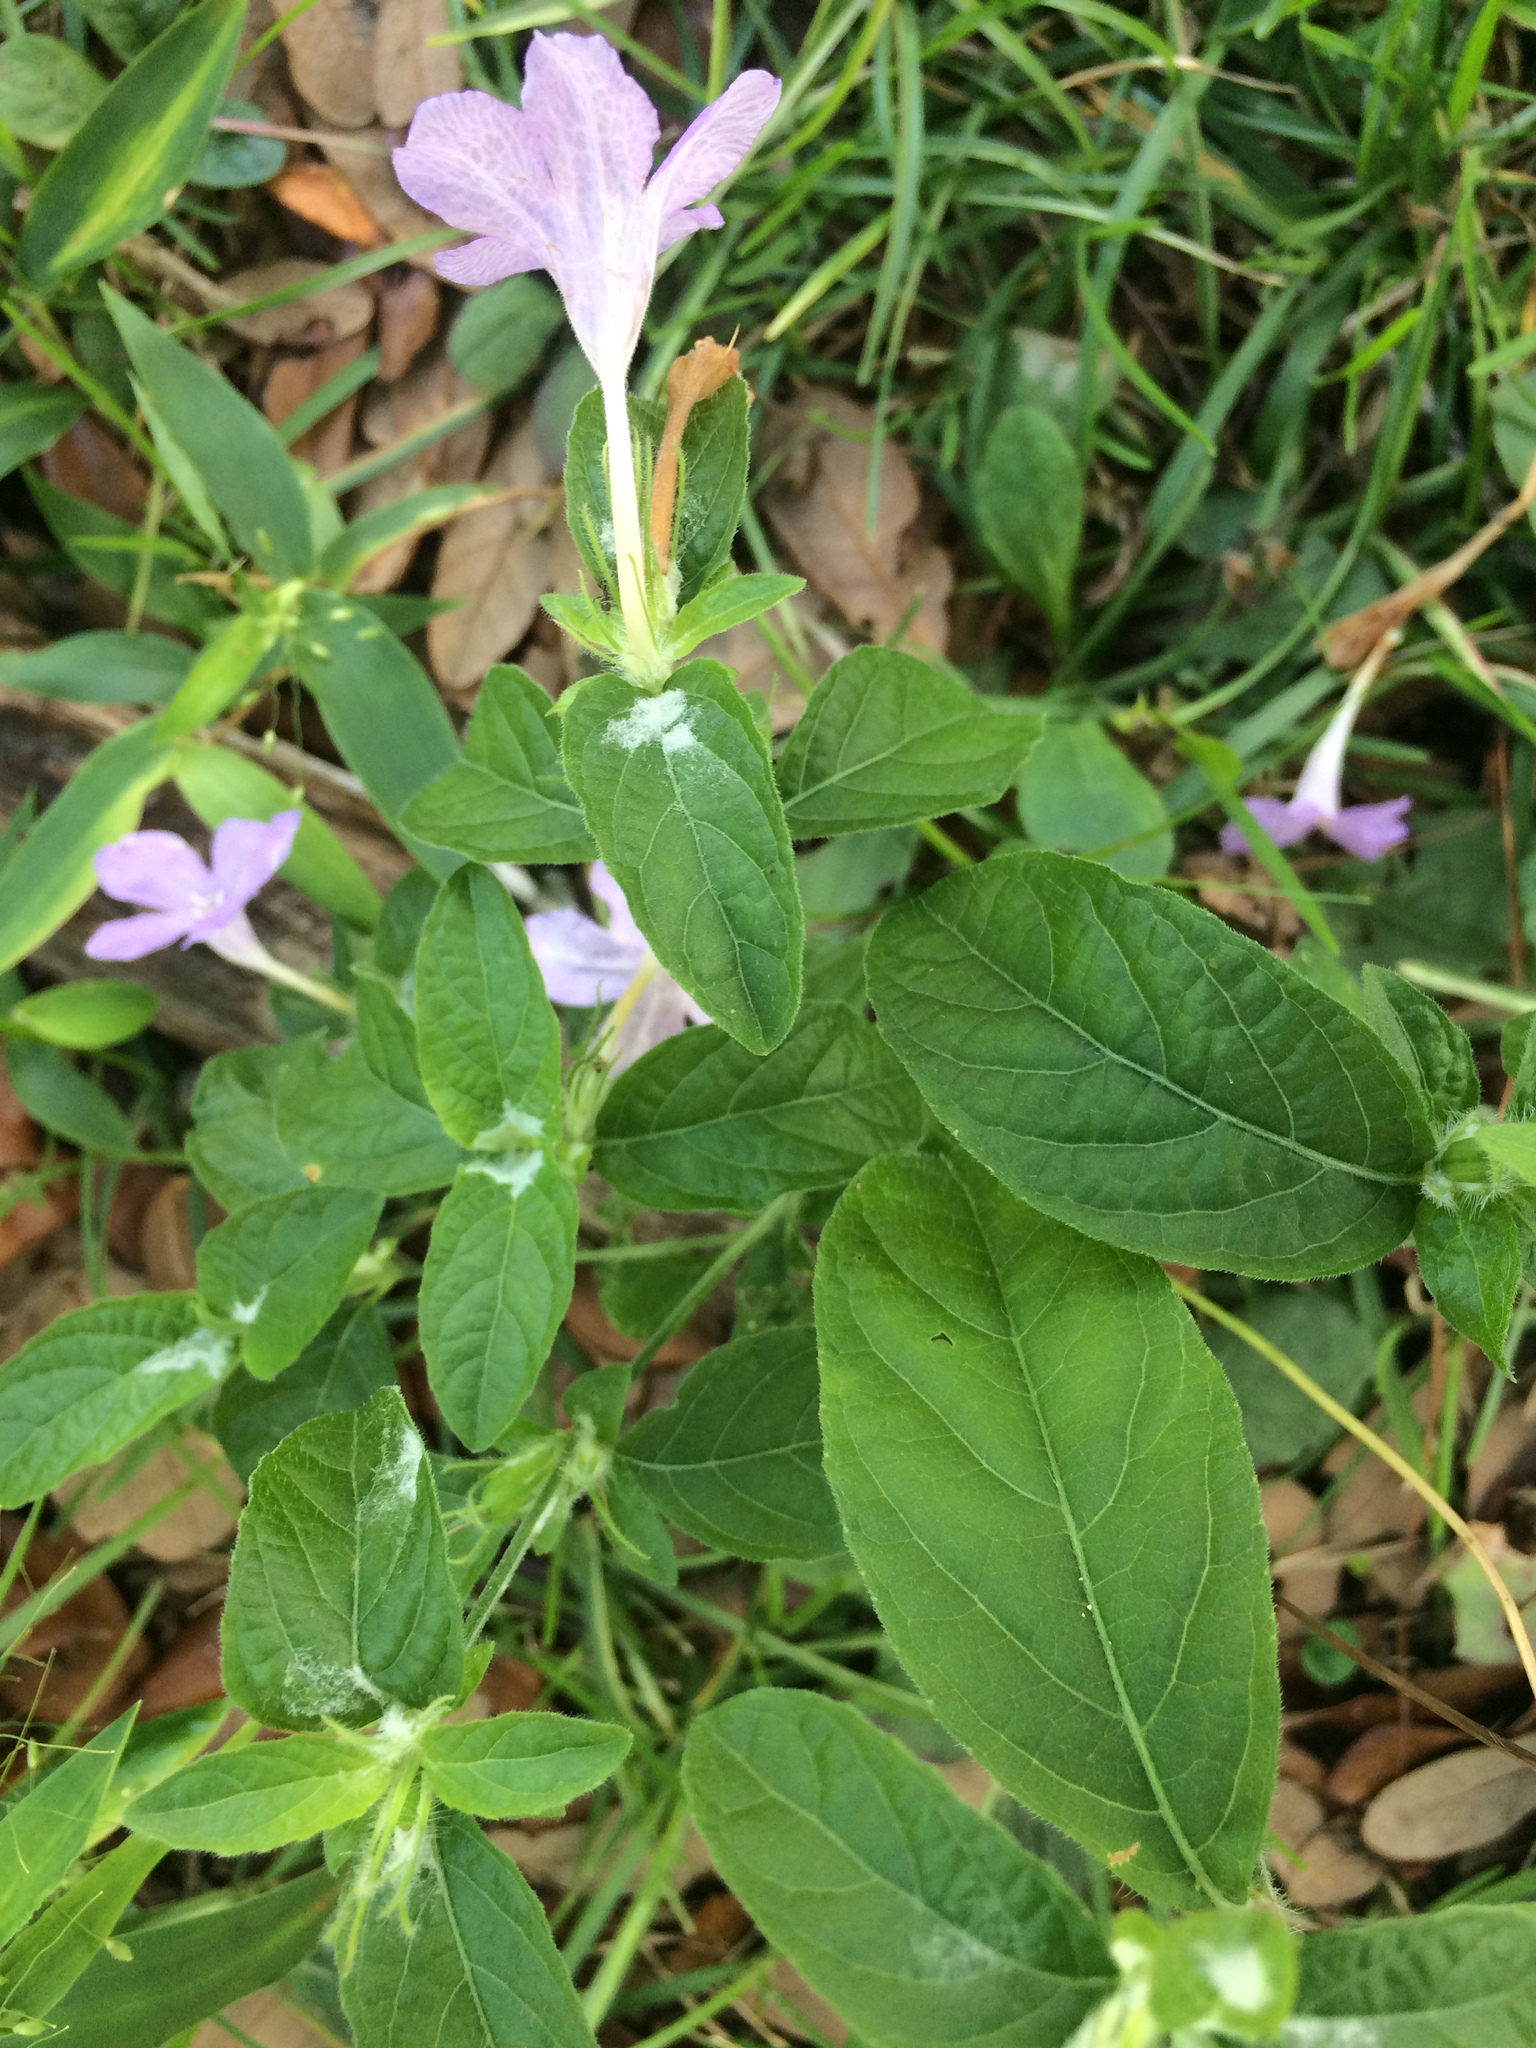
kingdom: Plantae
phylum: Tracheophyta
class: Magnoliopsida
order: Lamiales
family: Acanthaceae
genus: Ruellia
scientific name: Ruellia caroliniensis
